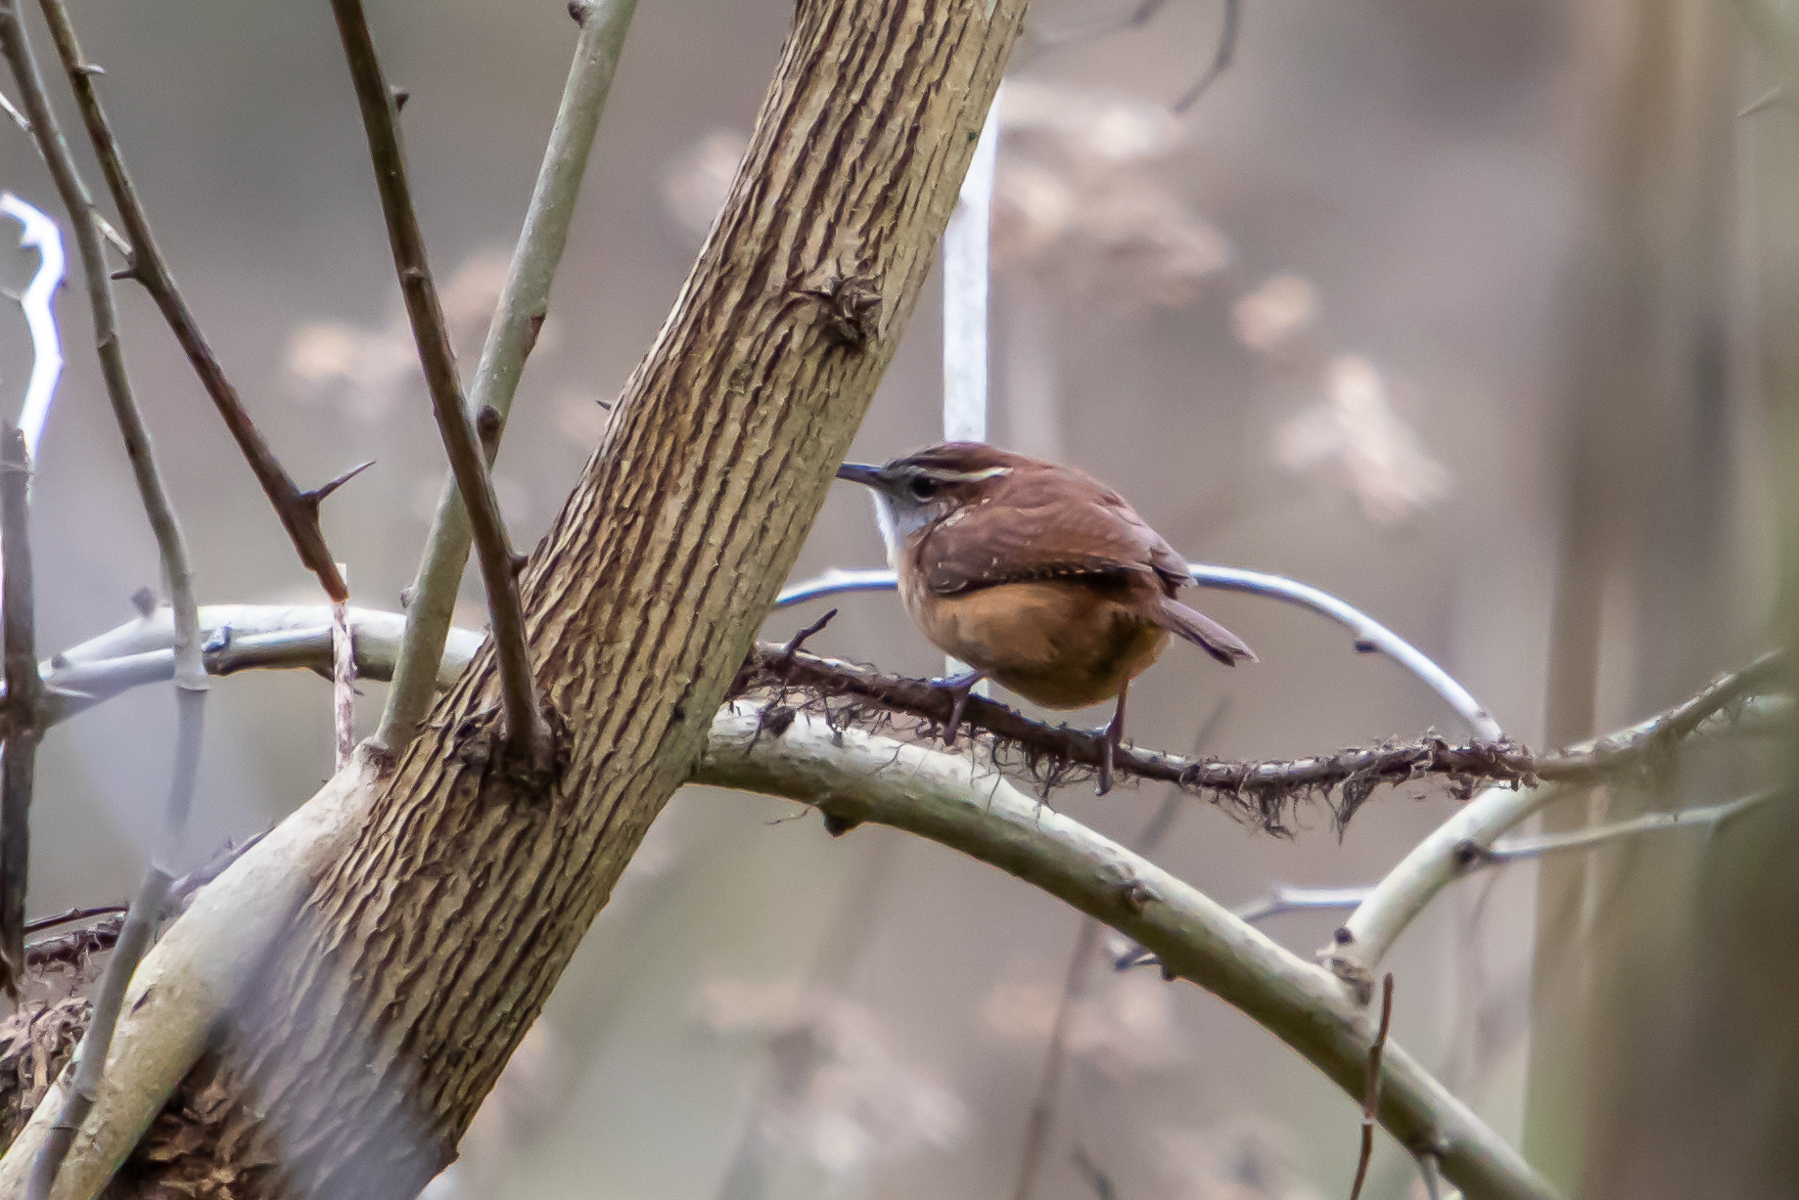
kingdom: Animalia
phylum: Chordata
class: Aves
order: Passeriformes
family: Troglodytidae
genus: Thryothorus
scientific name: Thryothorus ludovicianus
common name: Carolina wren
